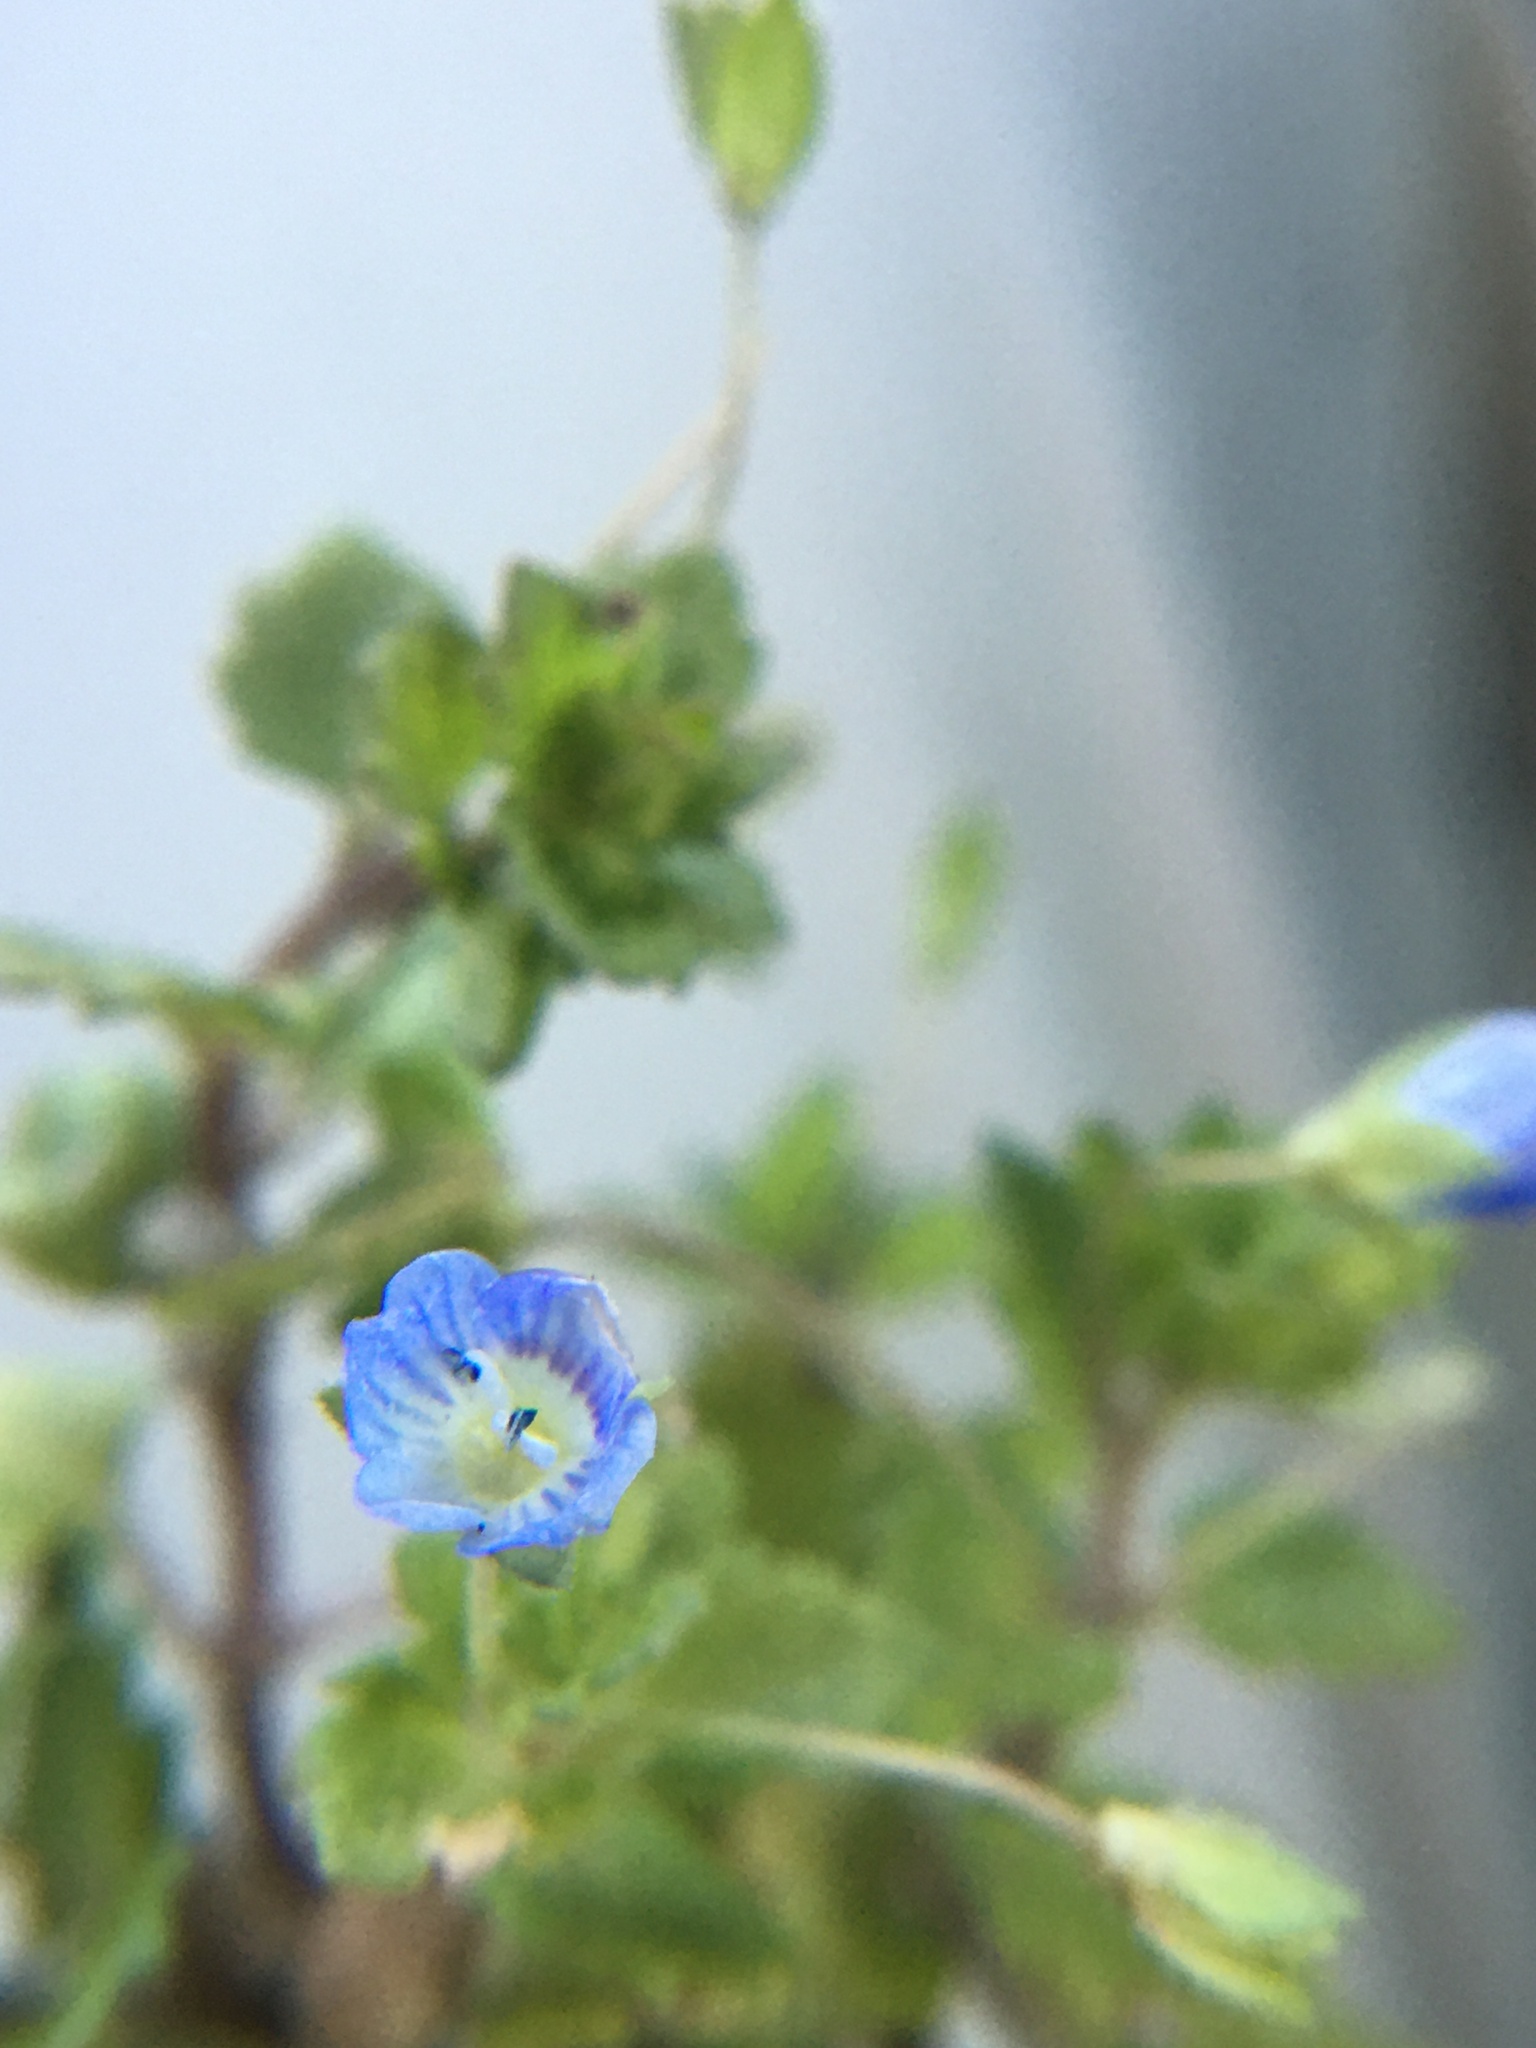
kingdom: Plantae
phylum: Tracheophyta
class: Magnoliopsida
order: Lamiales
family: Plantaginaceae
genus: Veronica
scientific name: Veronica persica
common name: Common field-speedwell
